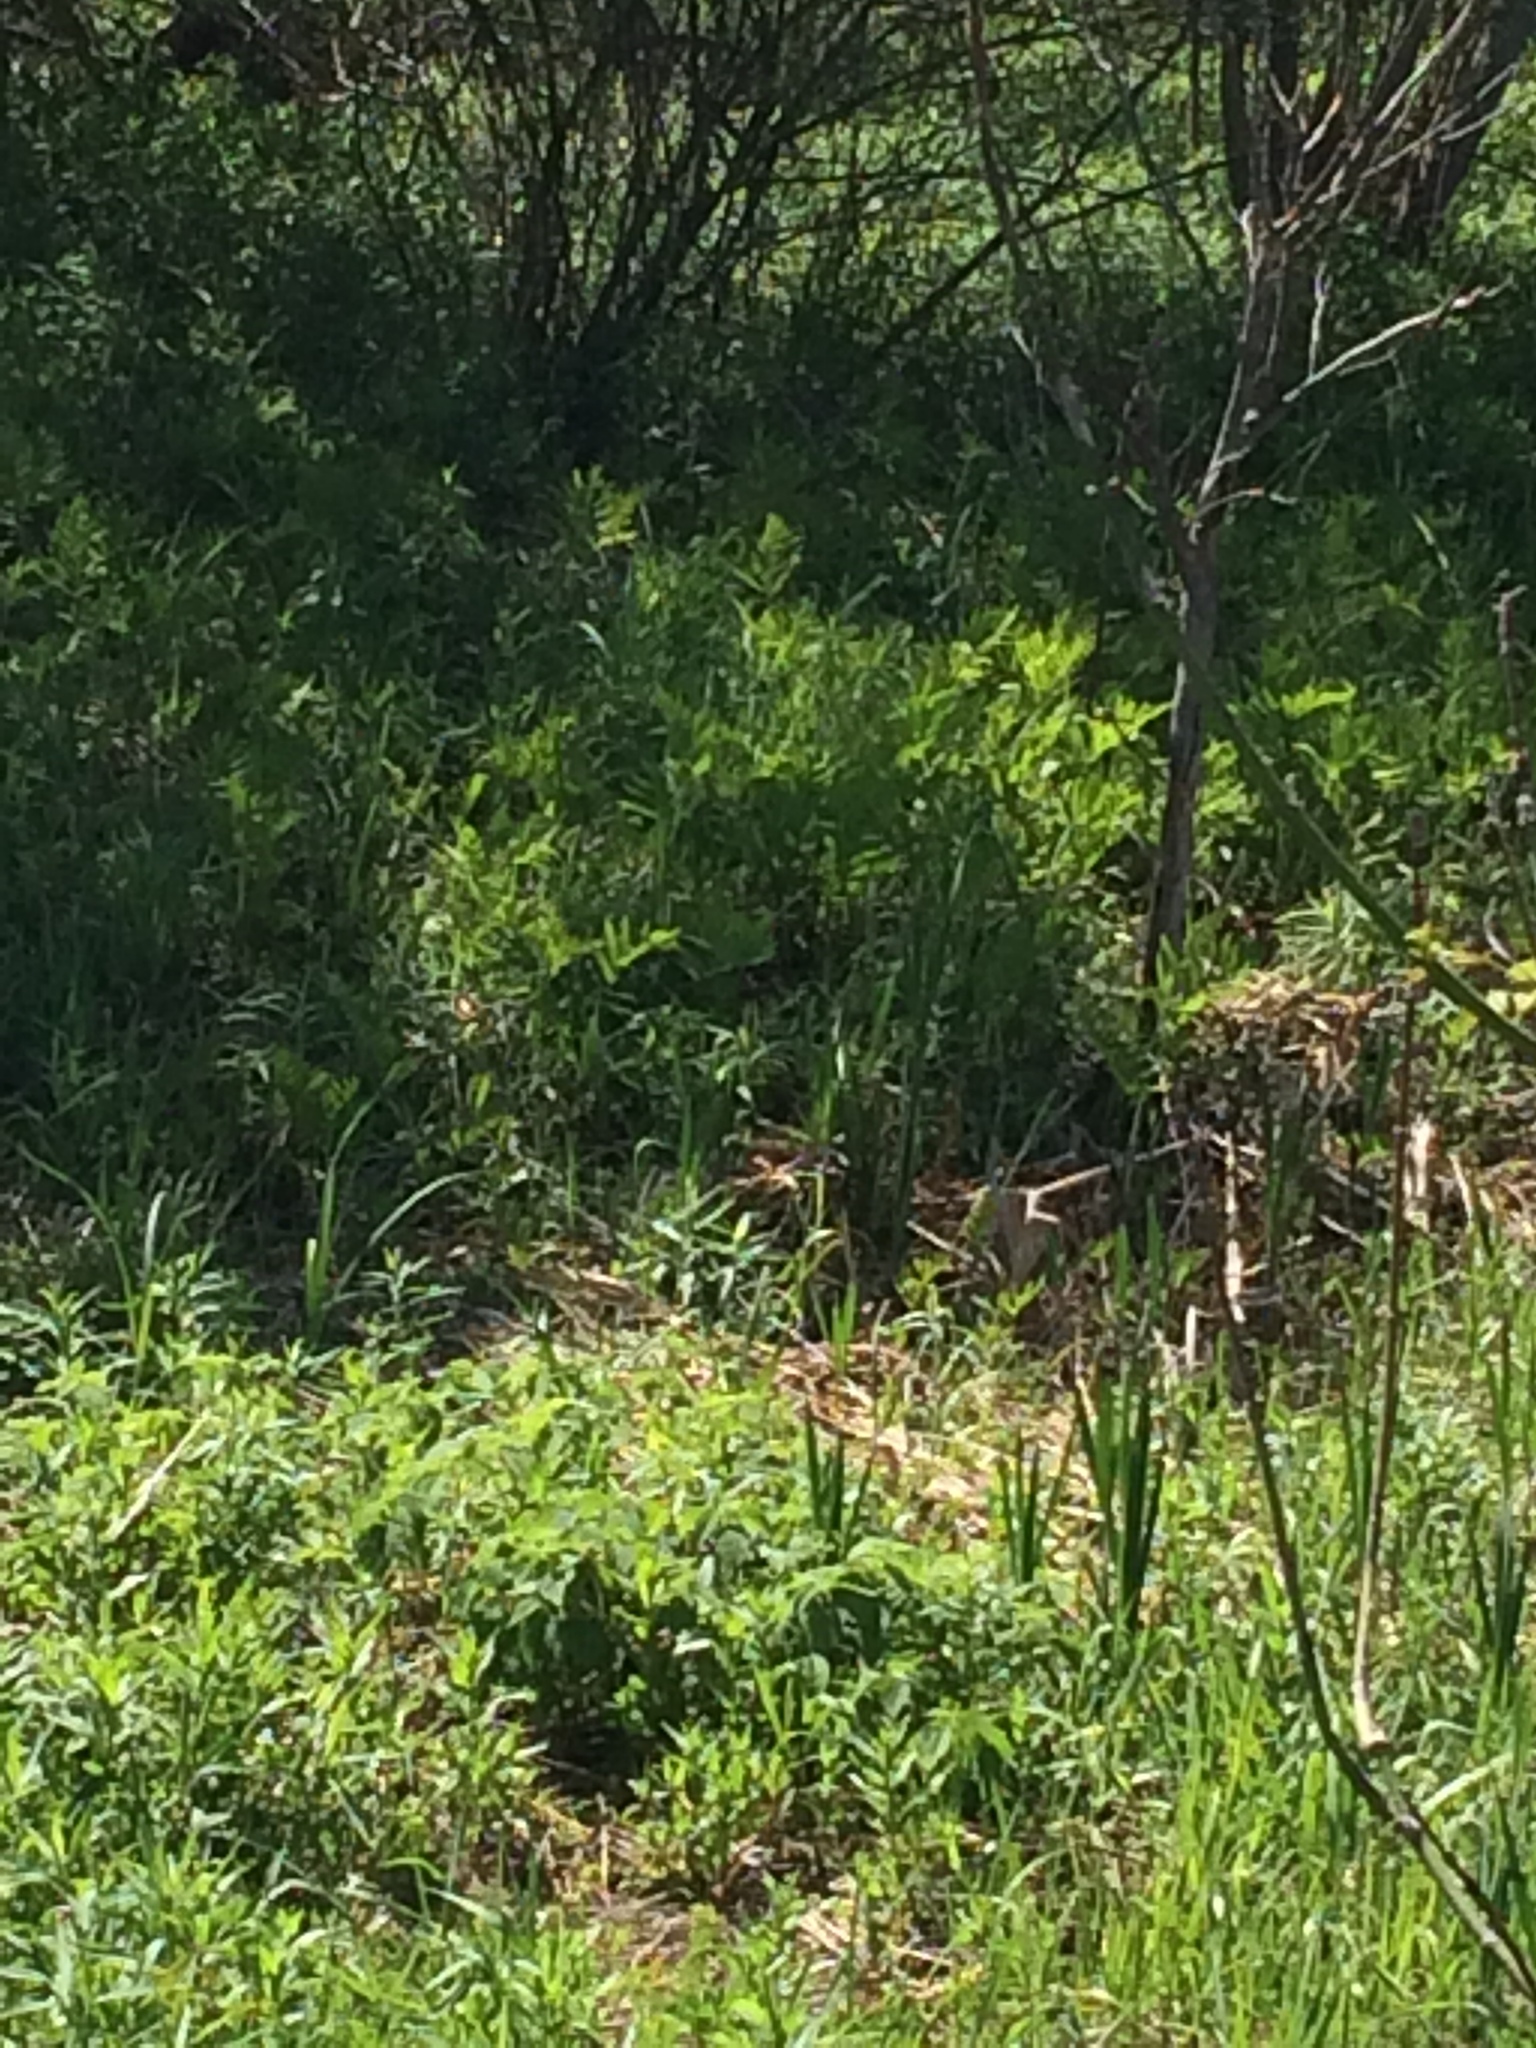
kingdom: Plantae
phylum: Tracheophyta
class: Polypodiopsida
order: Polypodiales
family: Onocleaceae
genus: Onoclea
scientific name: Onoclea sensibilis
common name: Sensitive fern
